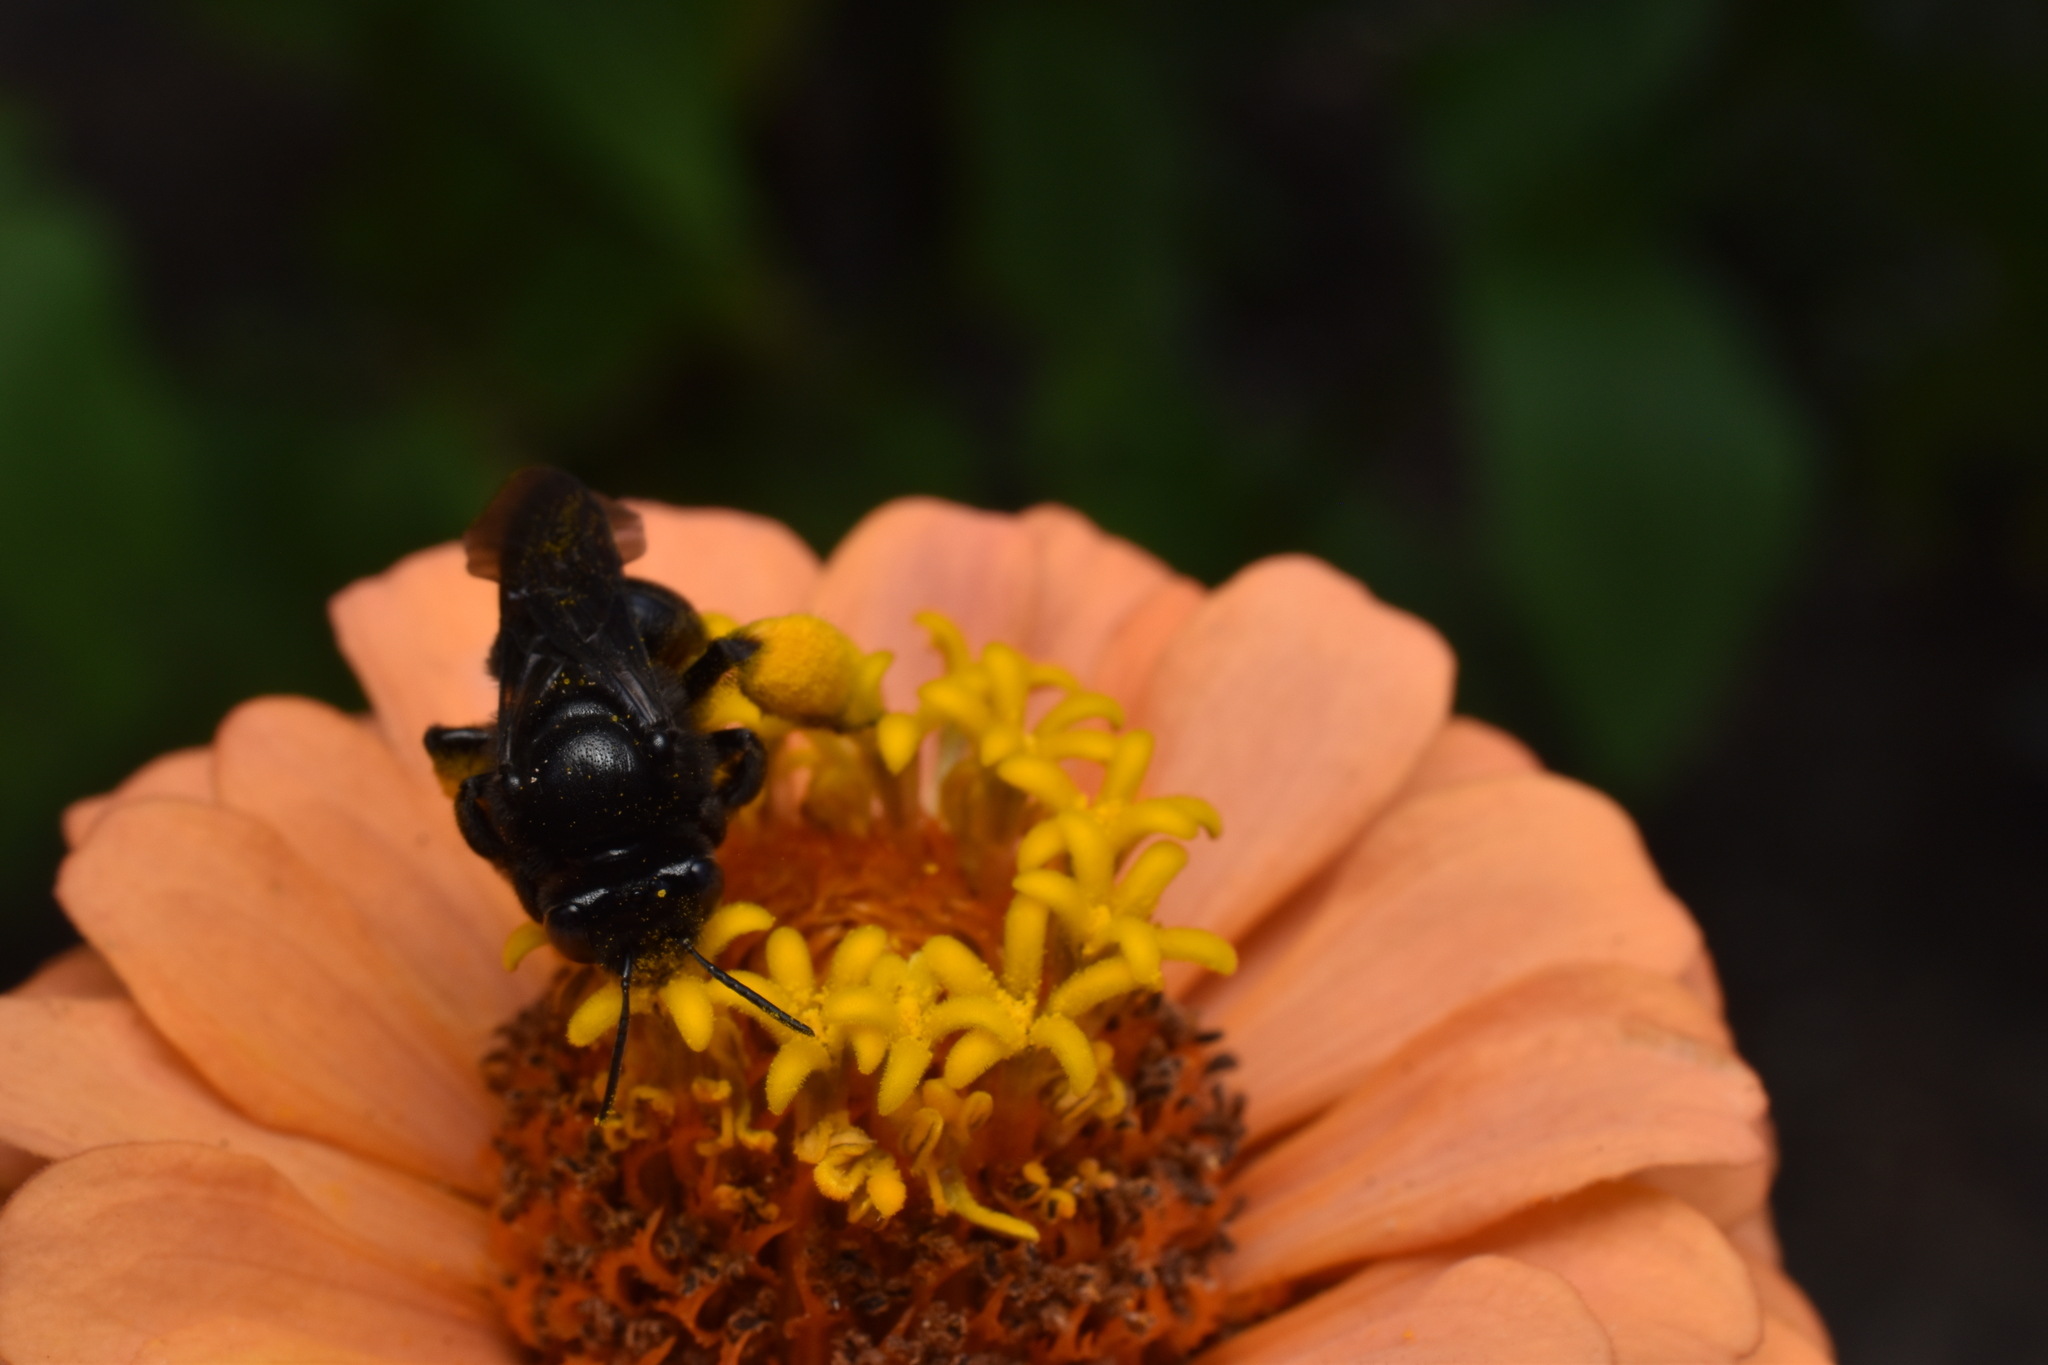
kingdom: Animalia
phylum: Arthropoda
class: Insecta
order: Hymenoptera
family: Apidae
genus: Melissodes
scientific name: Melissodes bimaculatus
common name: Two-spotted long-horned bee
